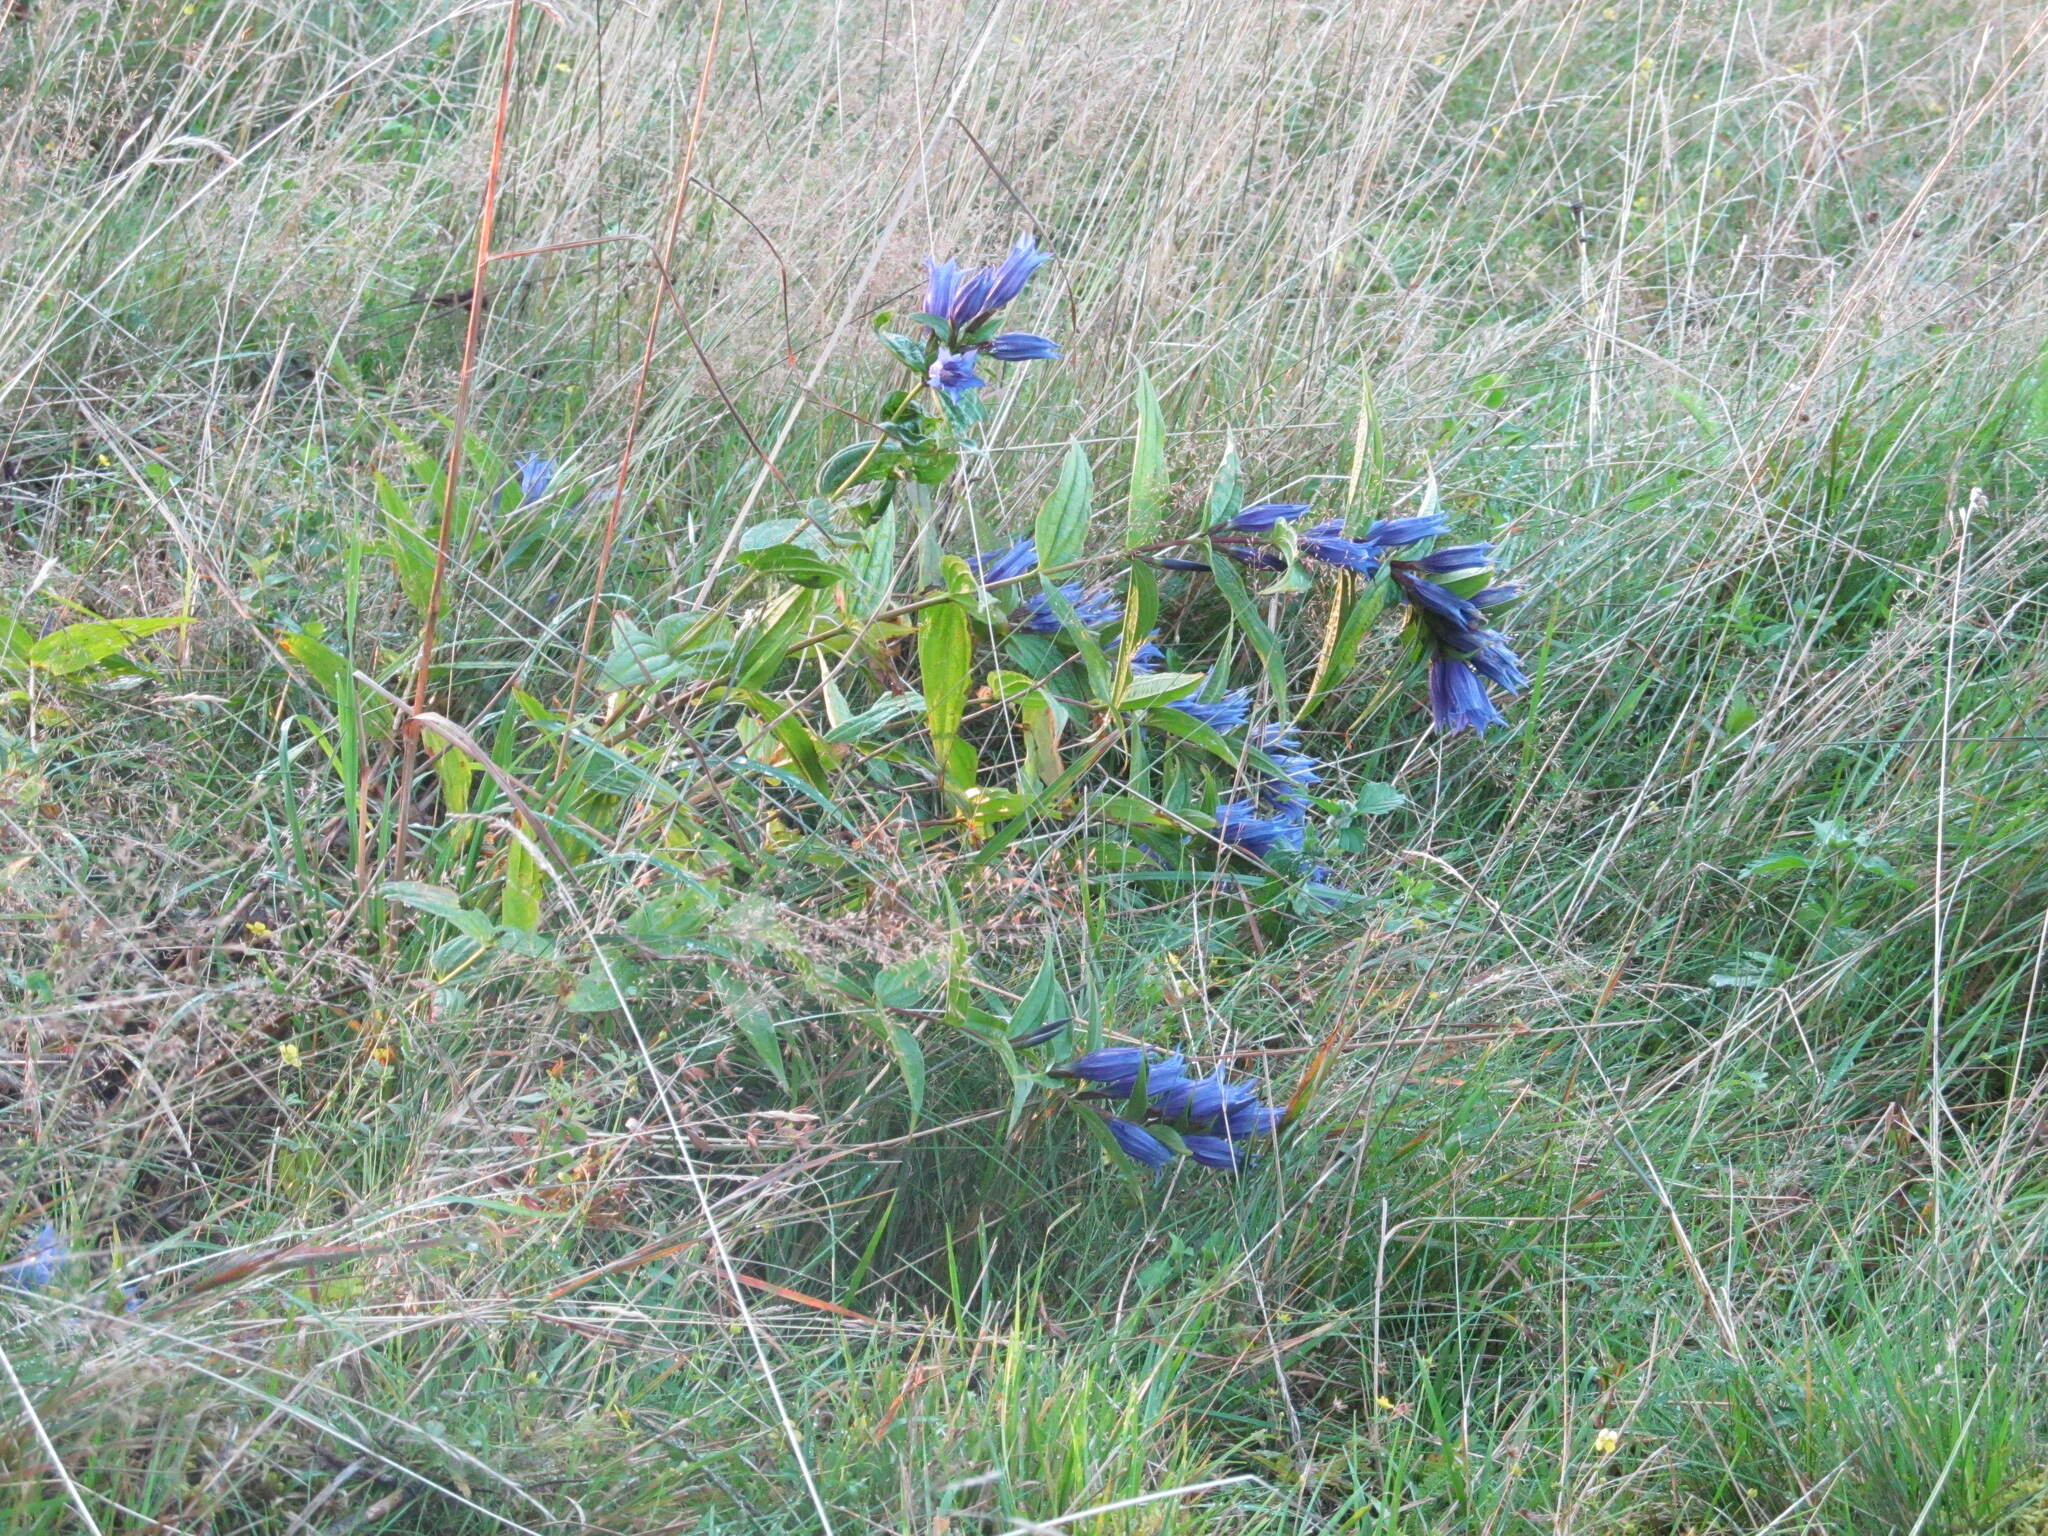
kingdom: Plantae
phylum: Tracheophyta
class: Magnoliopsida
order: Gentianales
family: Gentianaceae
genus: Gentiana
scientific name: Gentiana asclepiadea
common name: Willow gentian
